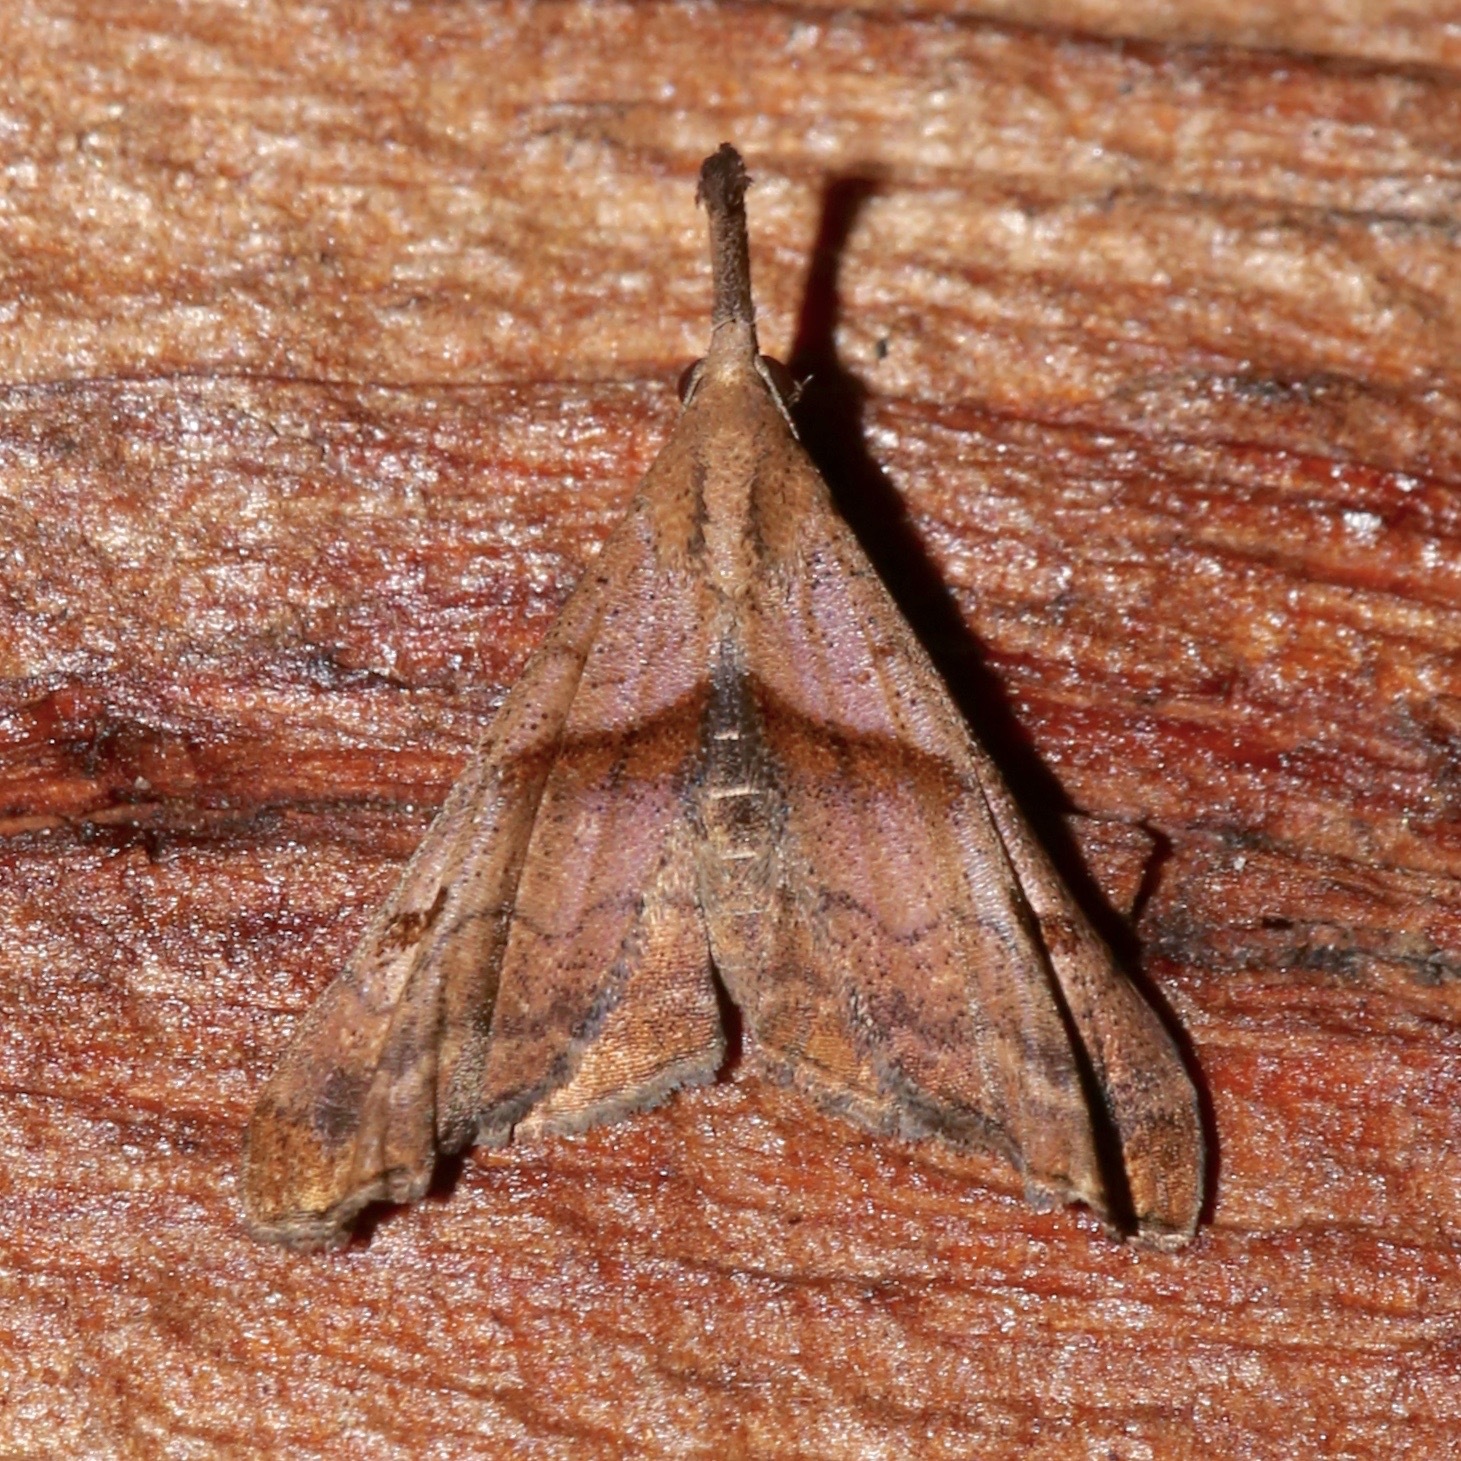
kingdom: Animalia
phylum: Arthropoda
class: Insecta
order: Lepidoptera
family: Erebidae
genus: Palthis
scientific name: Palthis angulalis
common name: Dark-spotted palthis moth
